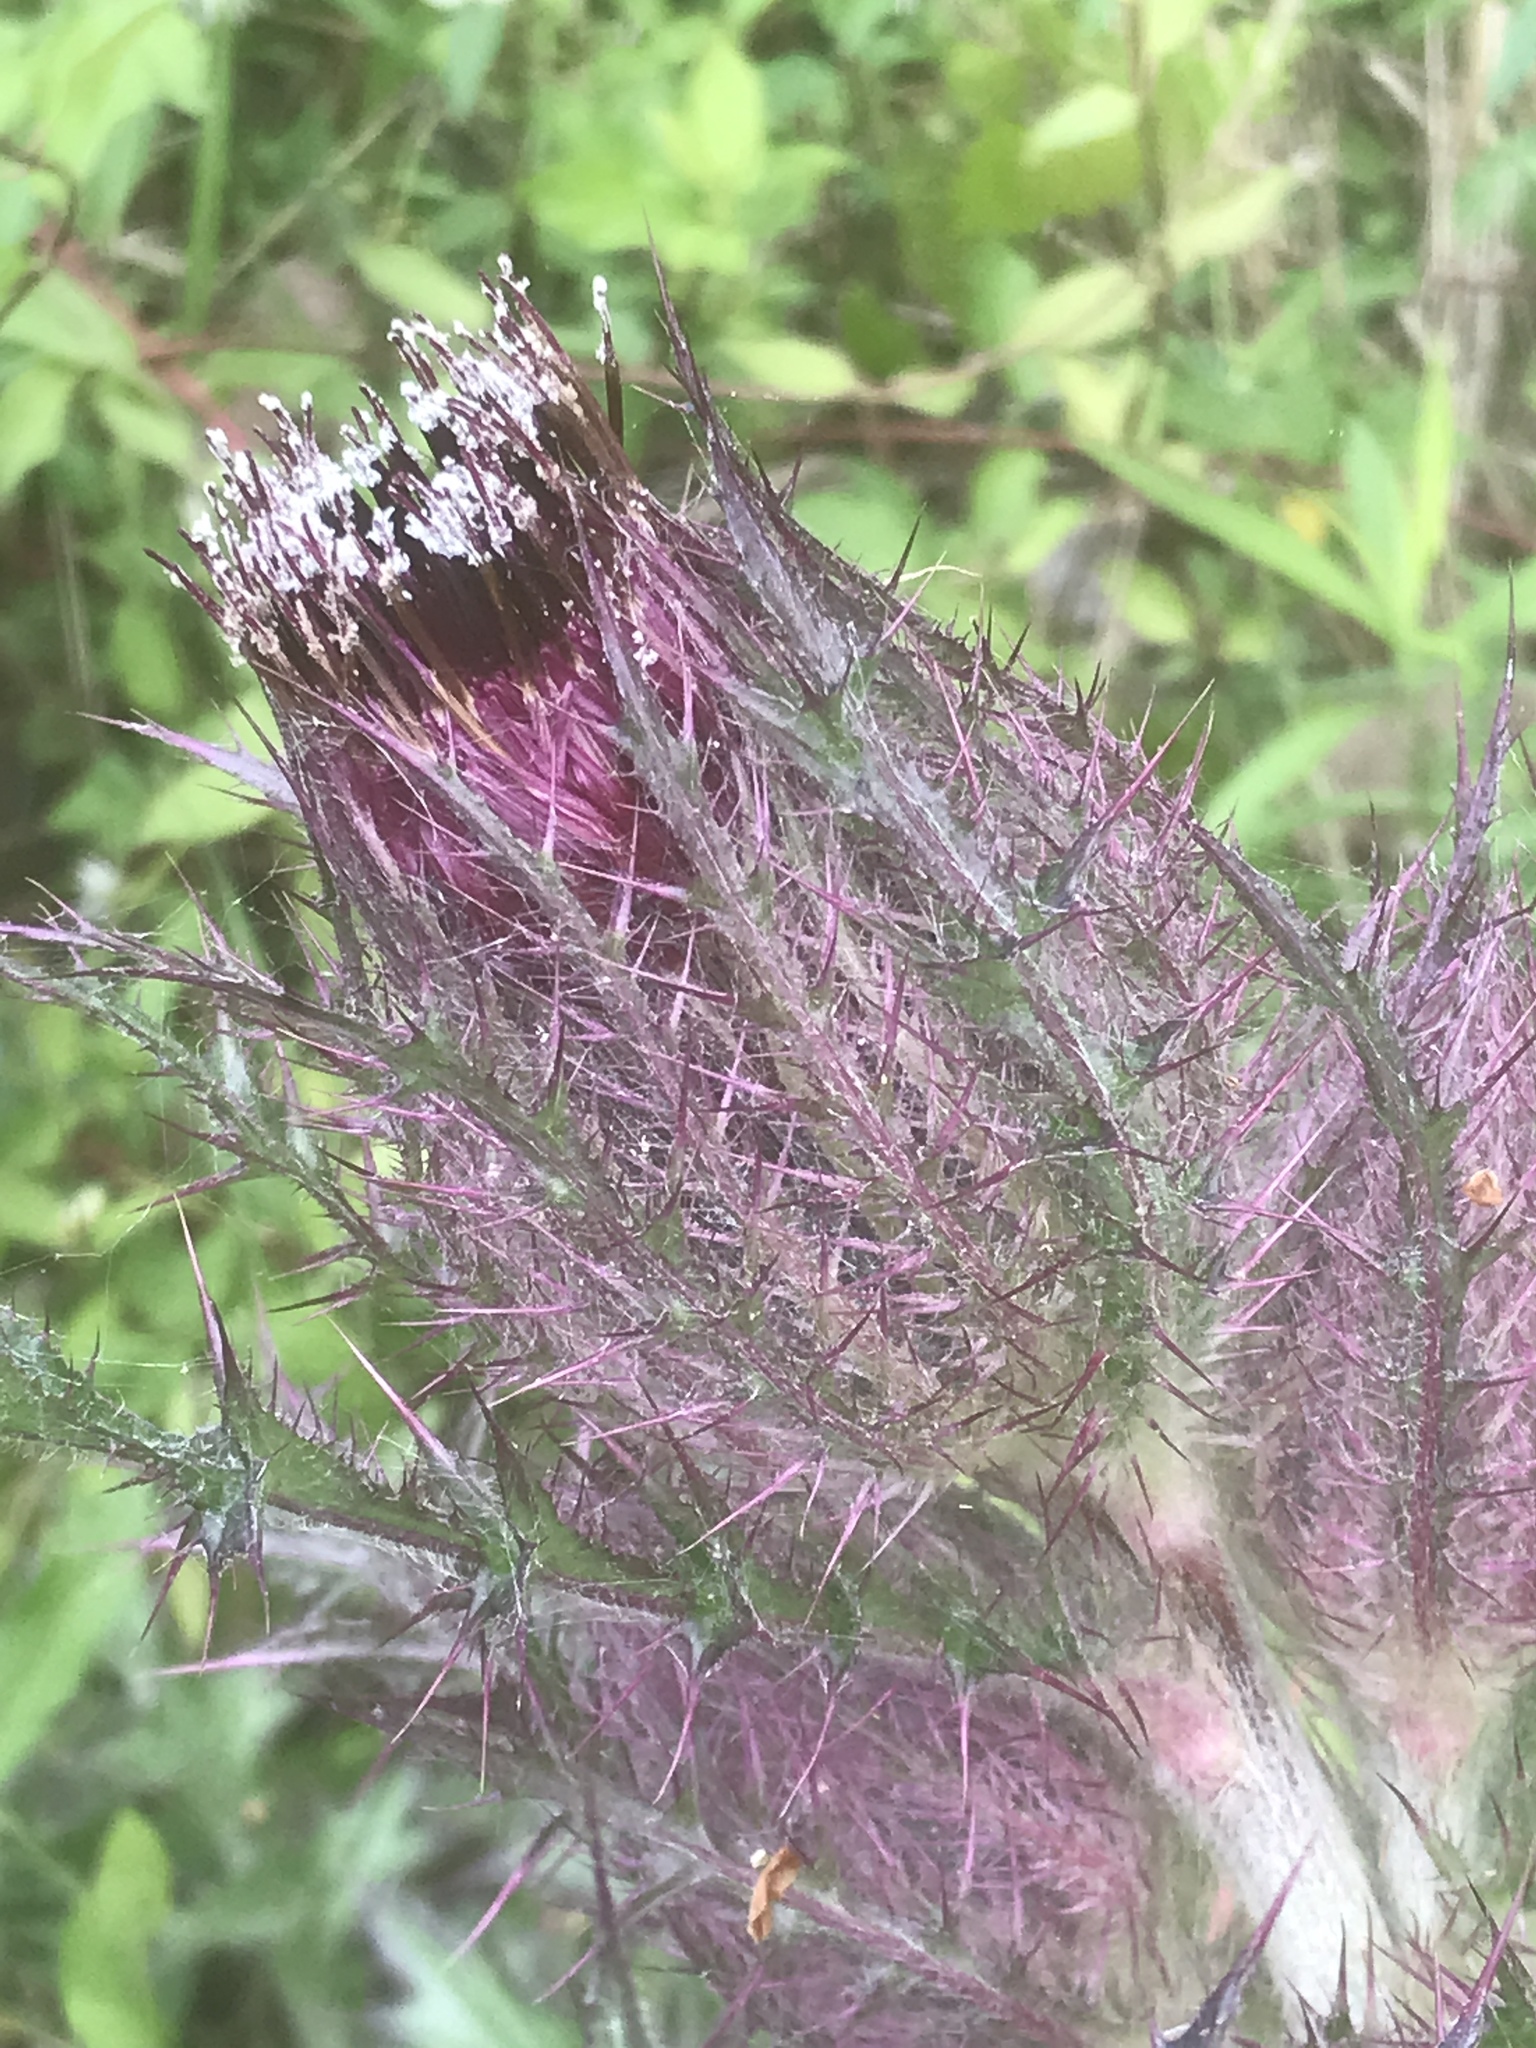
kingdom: Plantae
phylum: Tracheophyta
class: Magnoliopsida
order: Asterales
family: Asteraceae
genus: Cirsium
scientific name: Cirsium horridulum
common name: Bristly thistle
